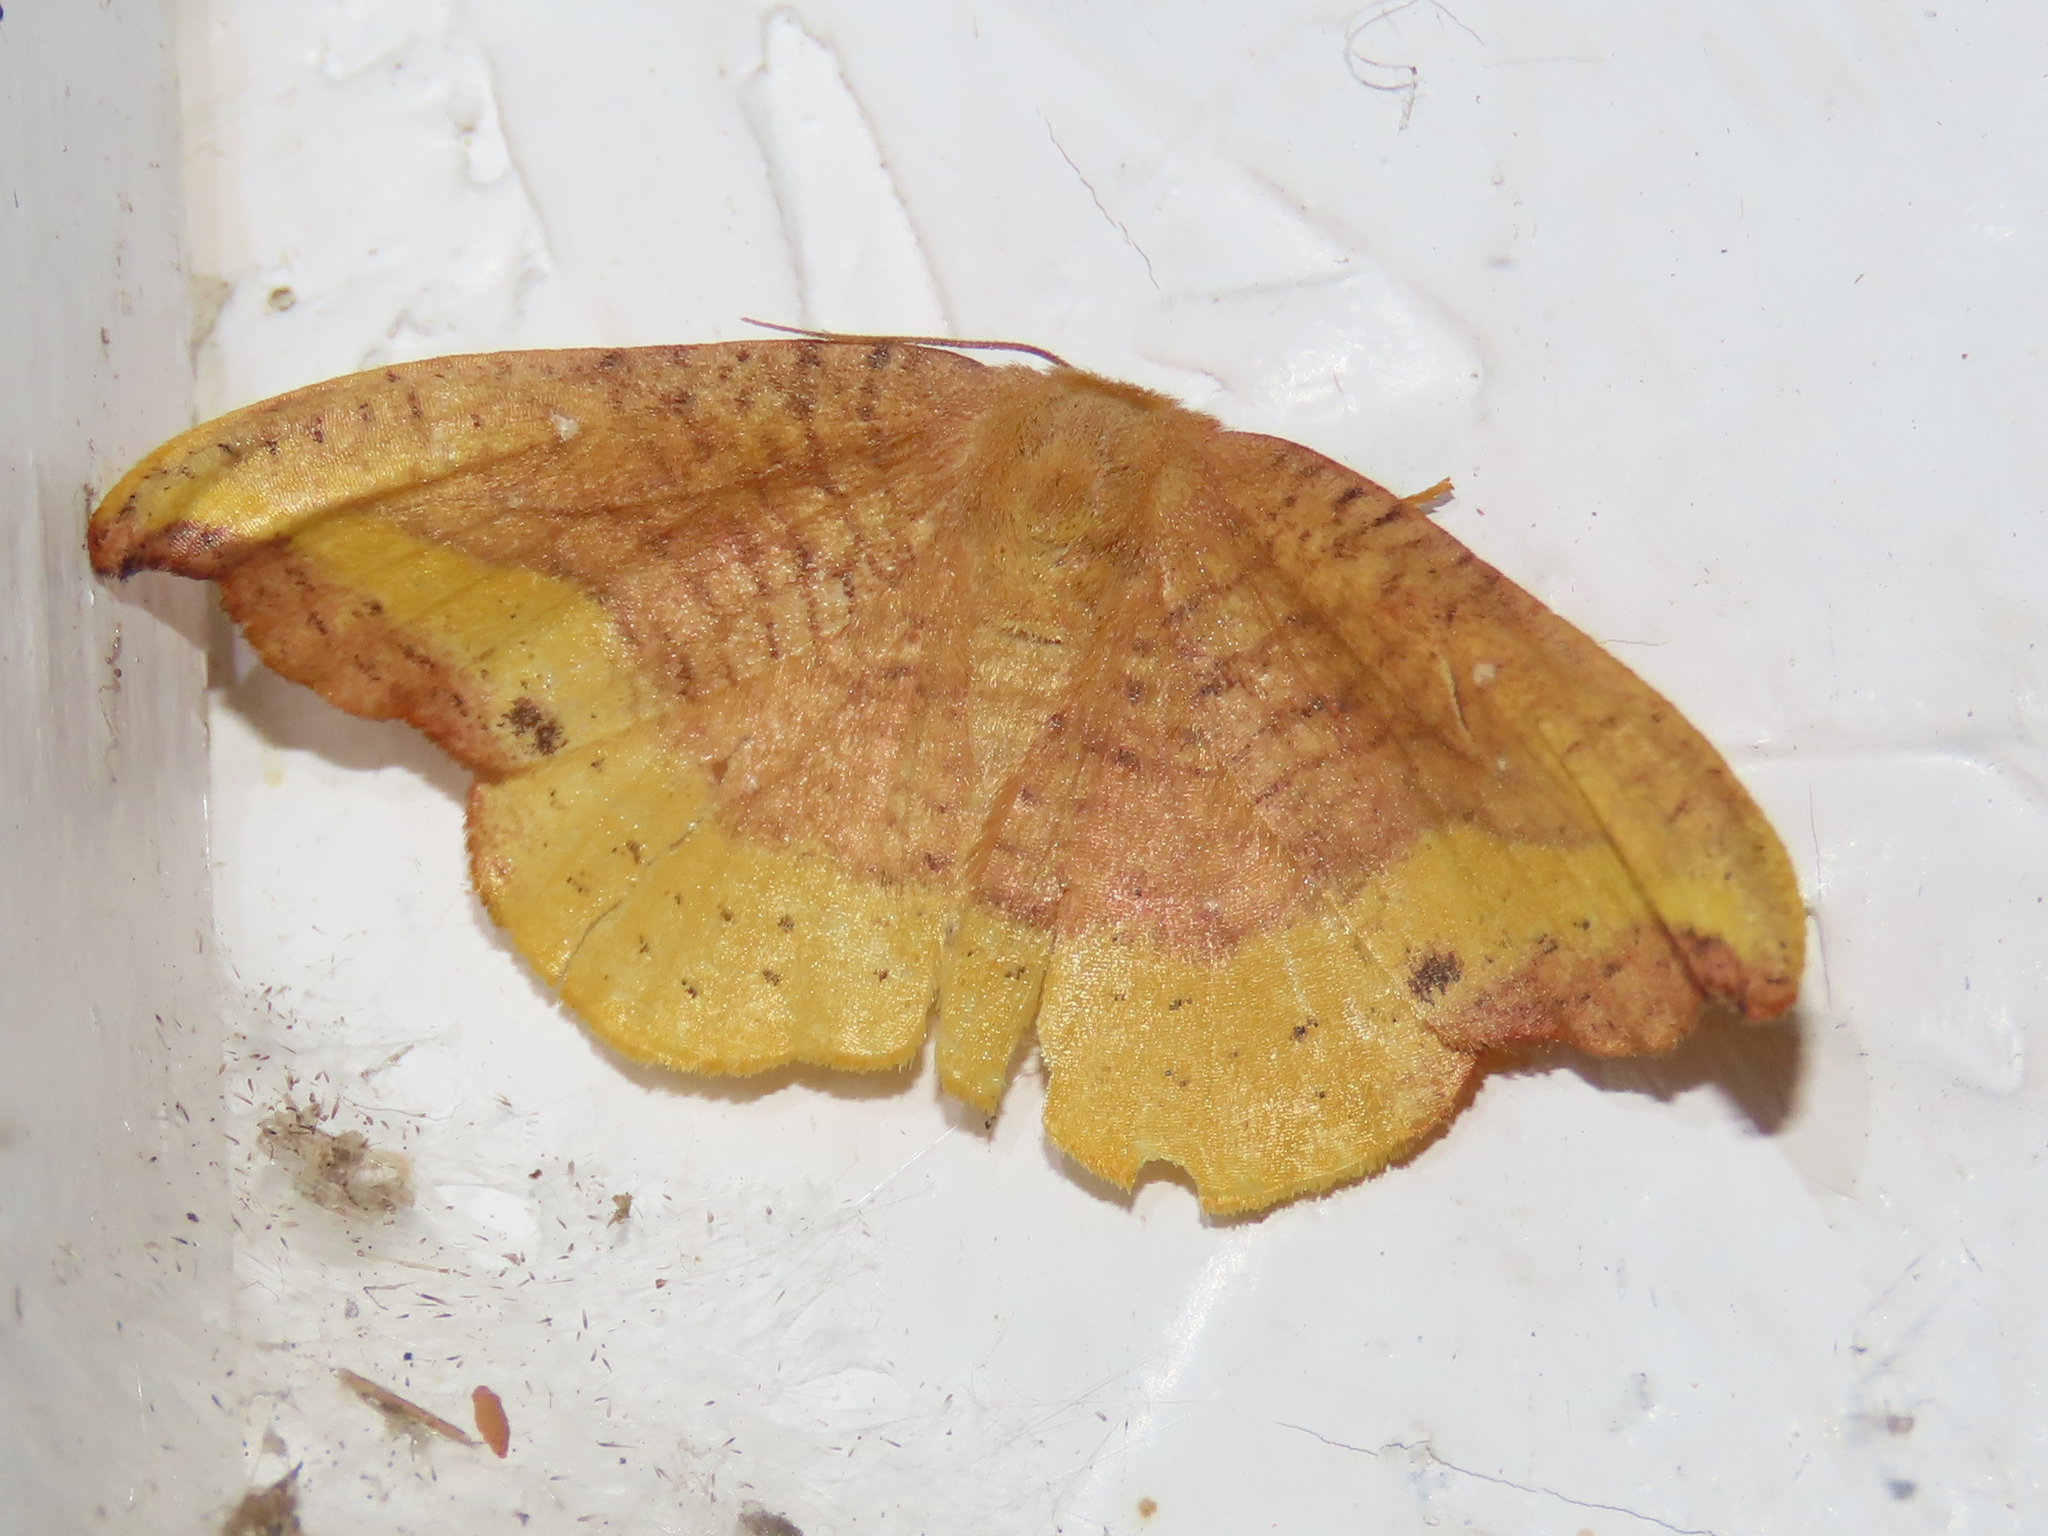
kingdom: Animalia
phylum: Arthropoda
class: Insecta
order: Lepidoptera
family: Drepanidae
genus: Oreta
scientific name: Oreta rosea
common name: Rose hooktip
